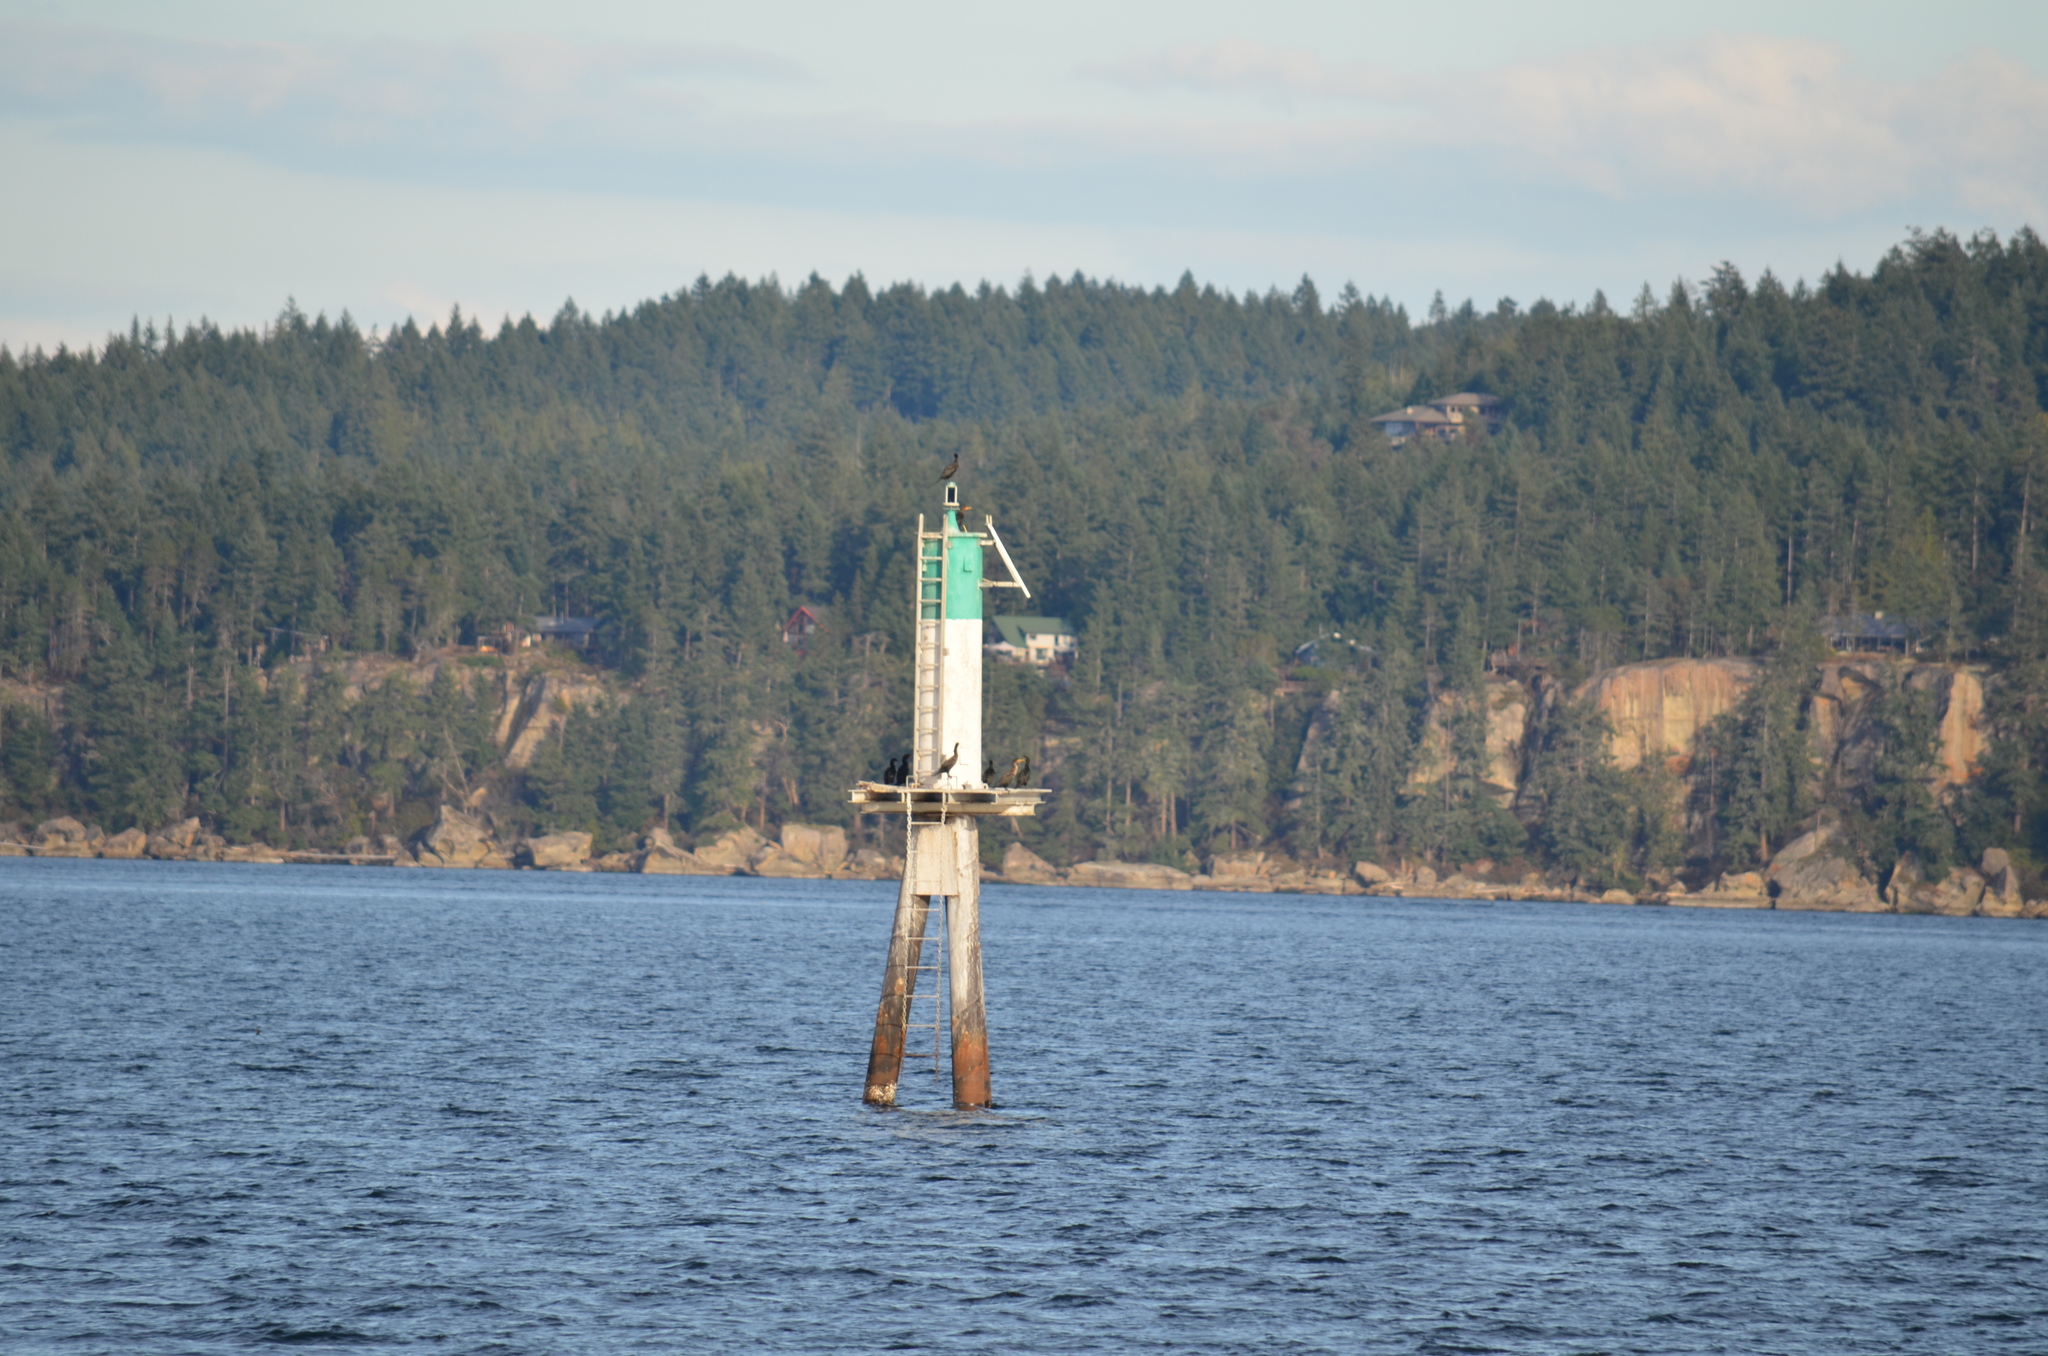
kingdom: Animalia
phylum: Chordata
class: Aves
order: Suliformes
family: Phalacrocoracidae
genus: Phalacrocorax
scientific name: Phalacrocorax auritus
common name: Double-crested cormorant
